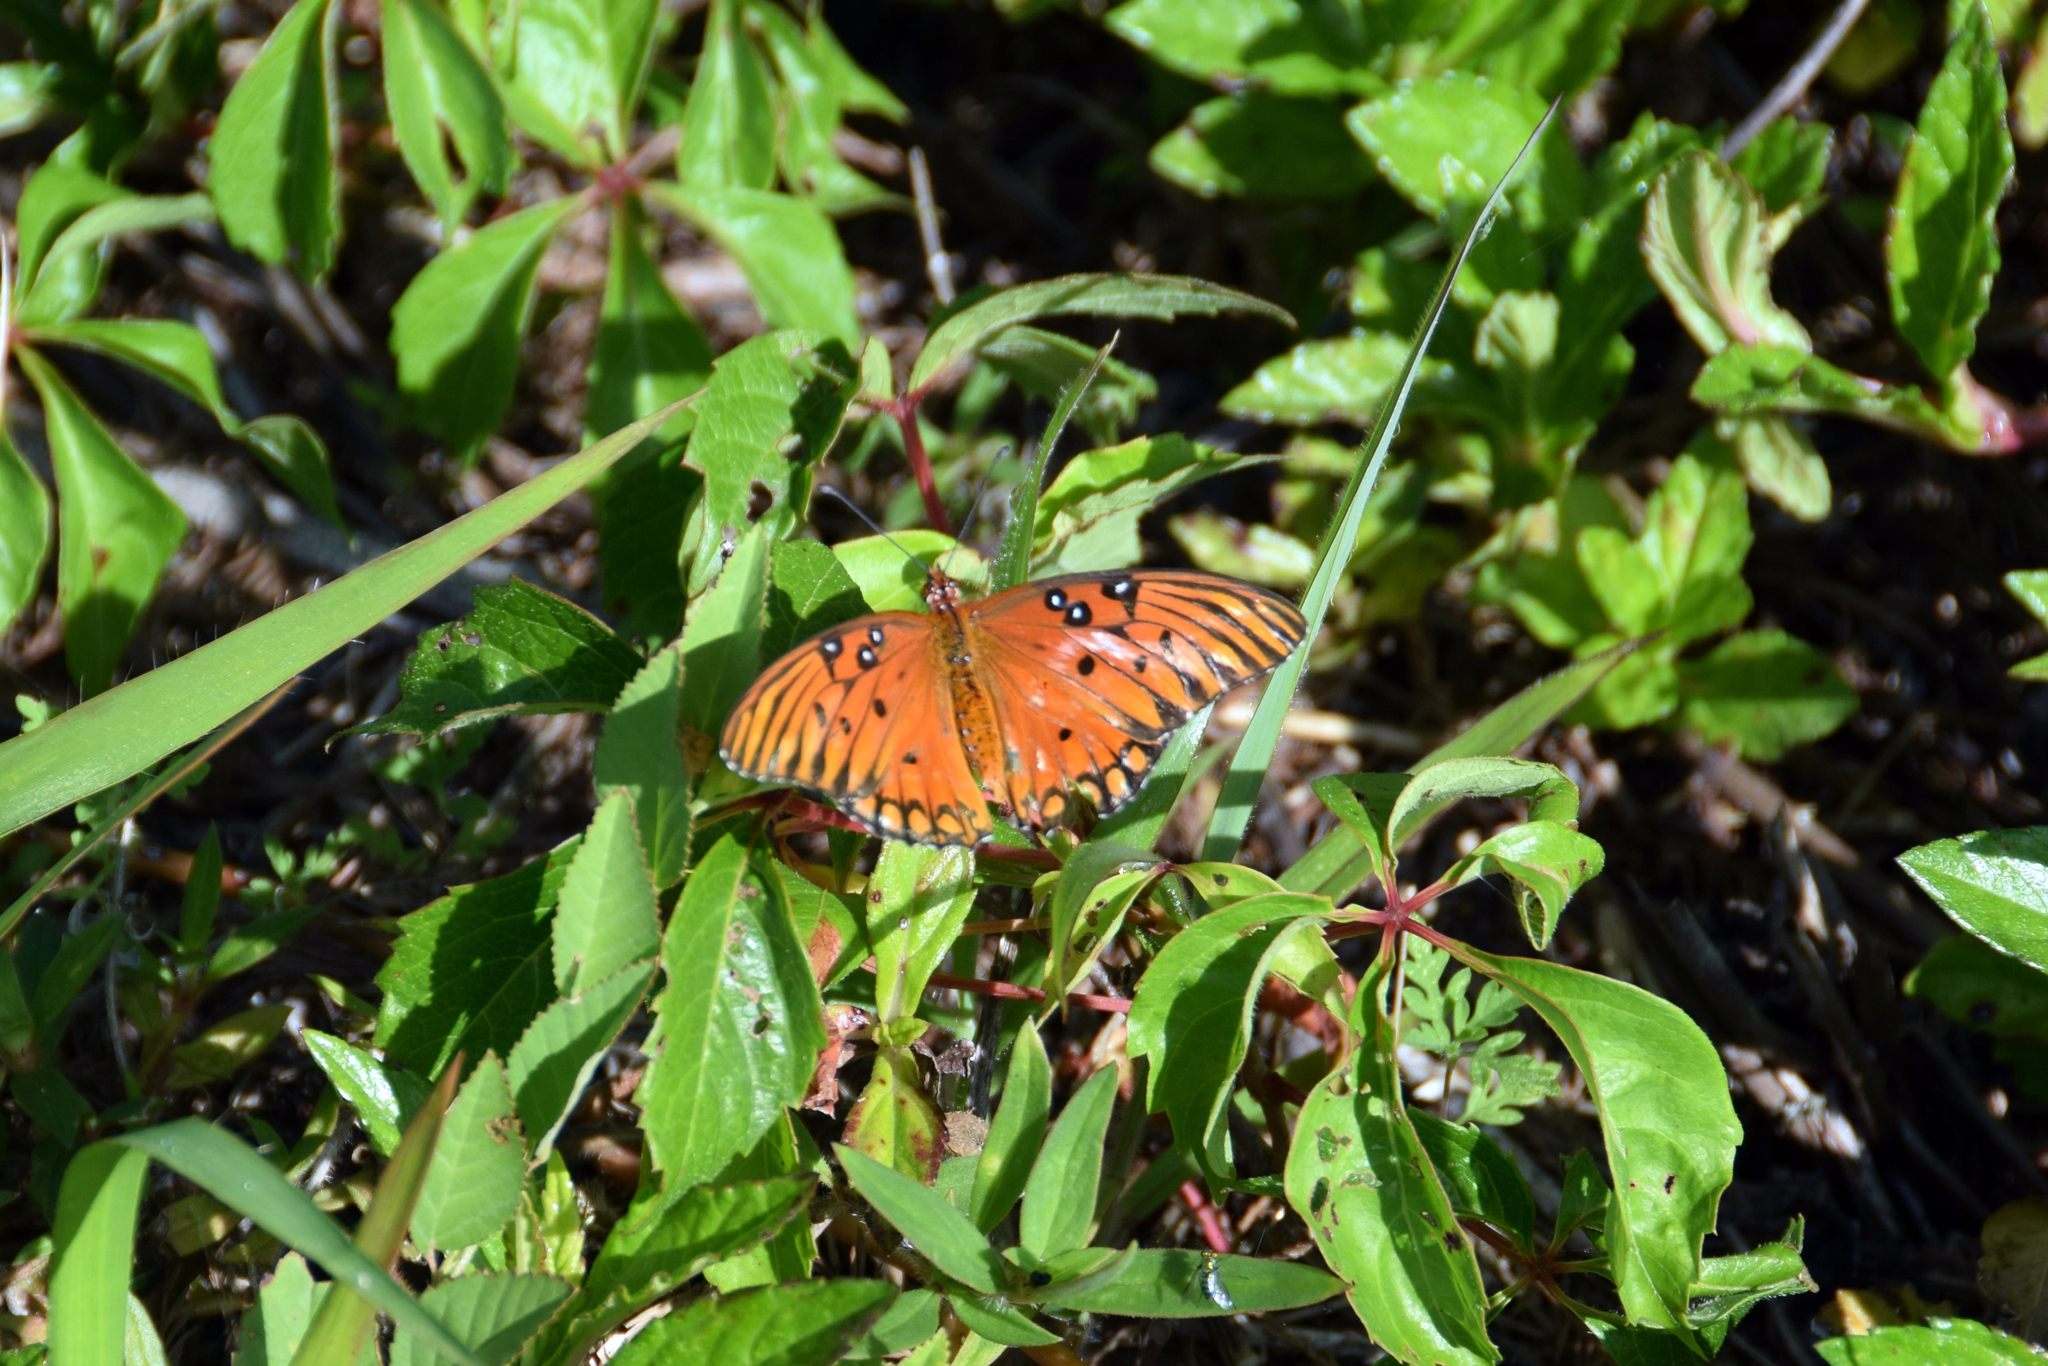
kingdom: Animalia
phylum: Arthropoda
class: Insecta
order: Lepidoptera
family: Nymphalidae
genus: Dione
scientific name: Dione vanillae
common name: Gulf fritillary
